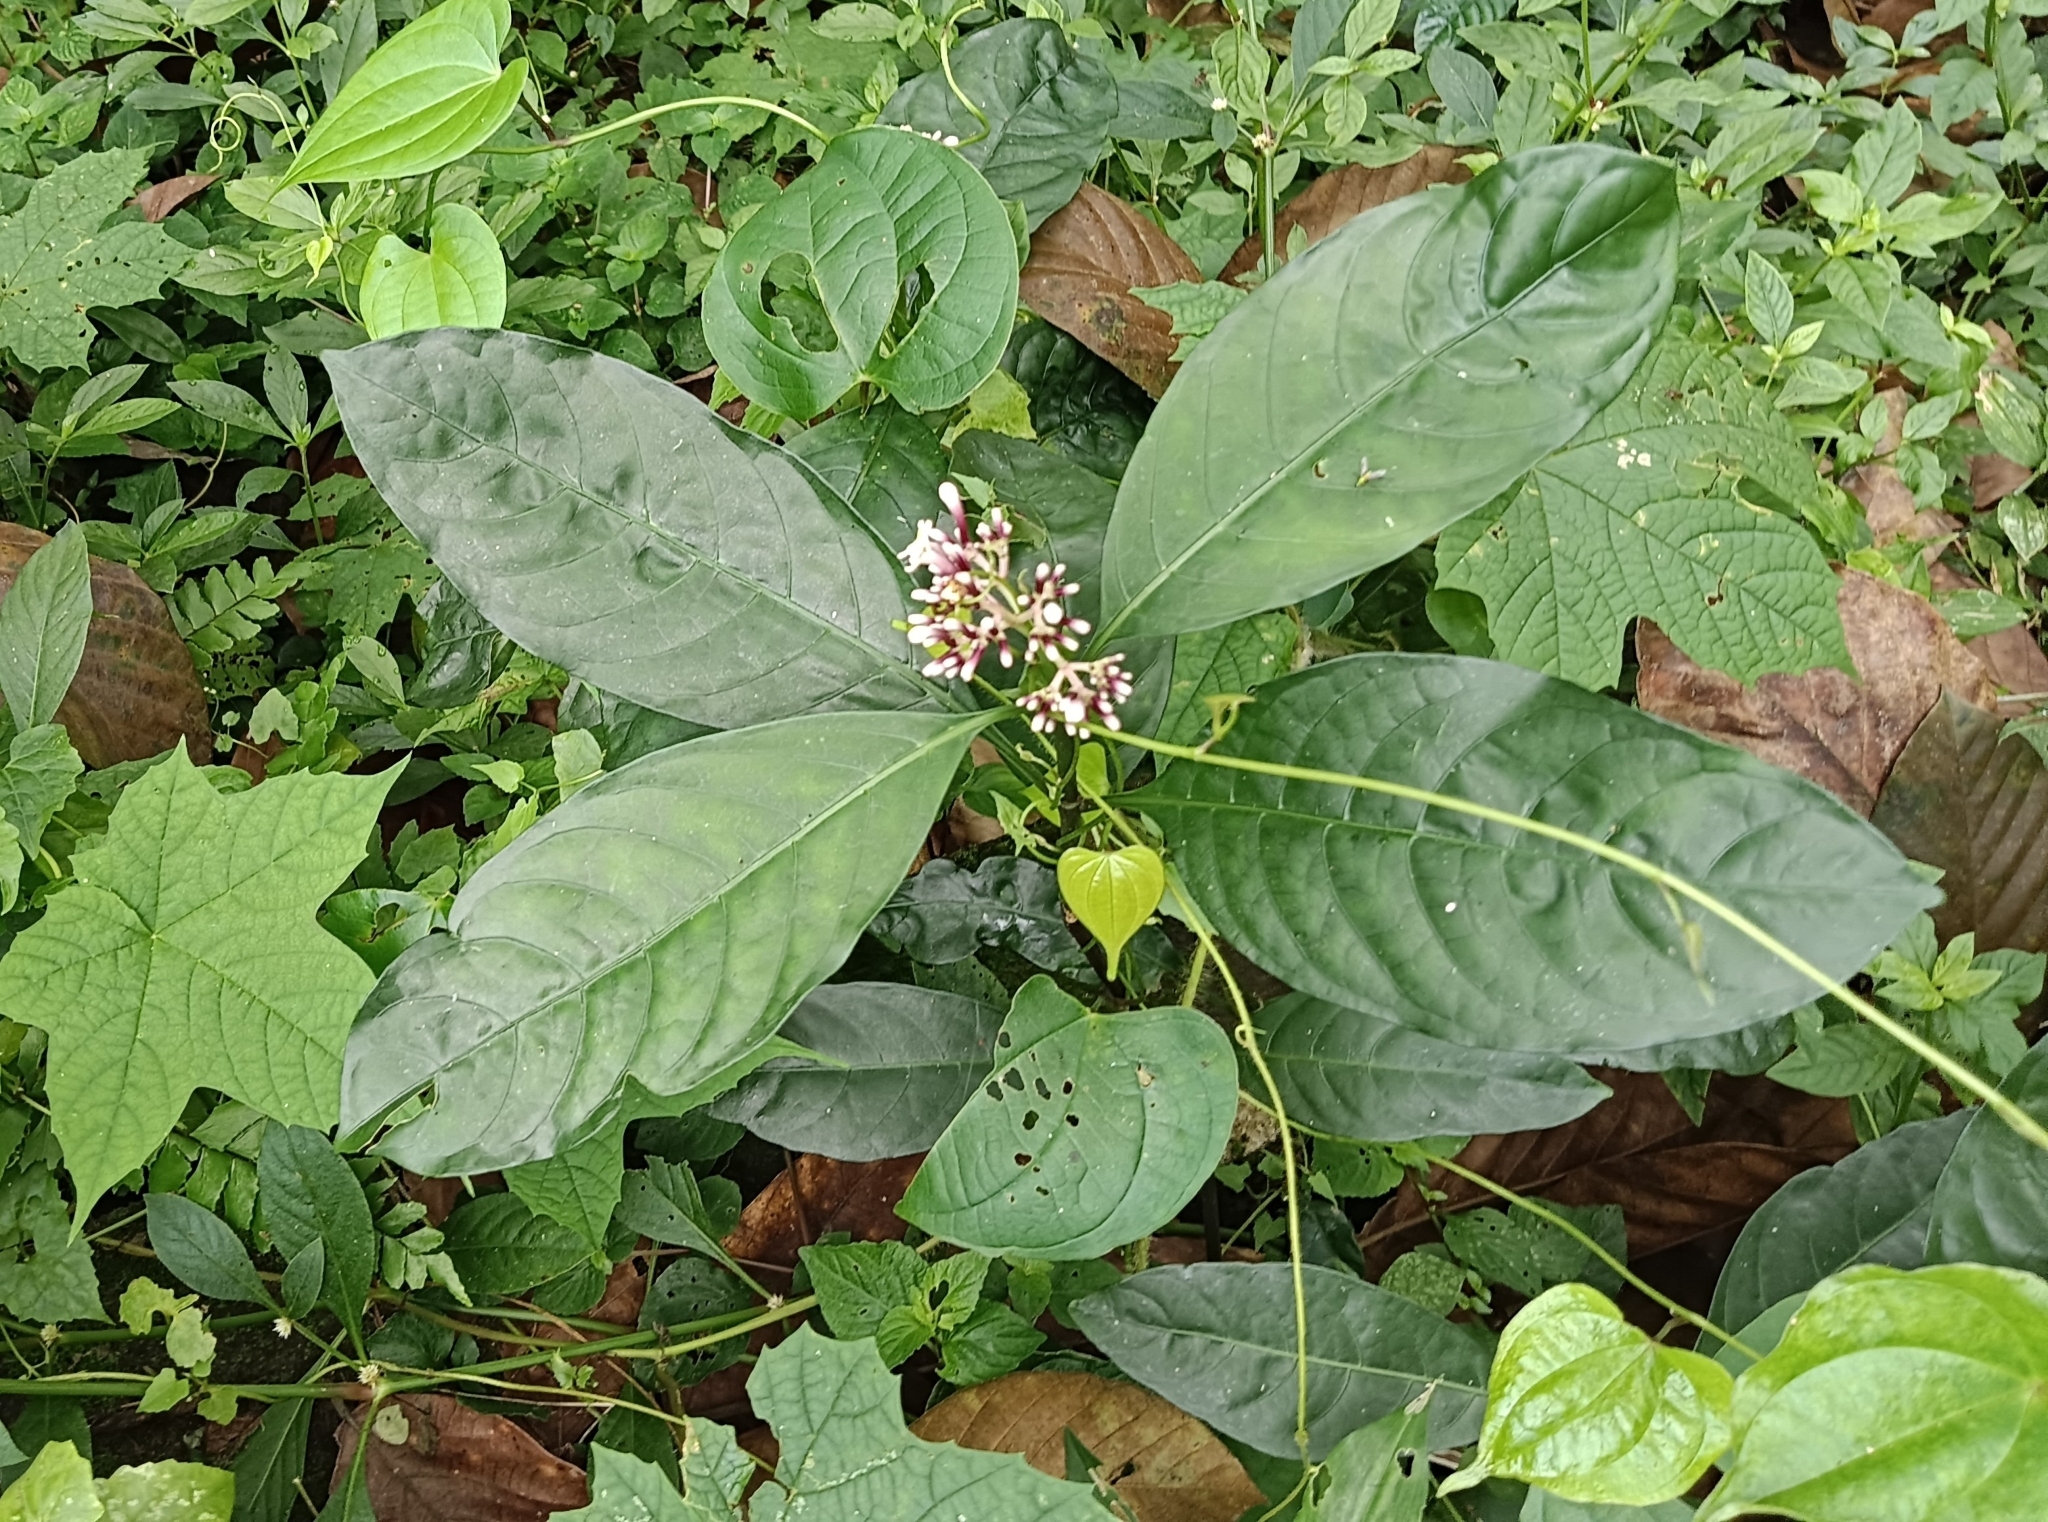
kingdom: Plantae
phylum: Tracheophyta
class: Magnoliopsida
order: Gentianales
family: Rubiaceae
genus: Chassalia
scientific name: Chassalia curviflora
